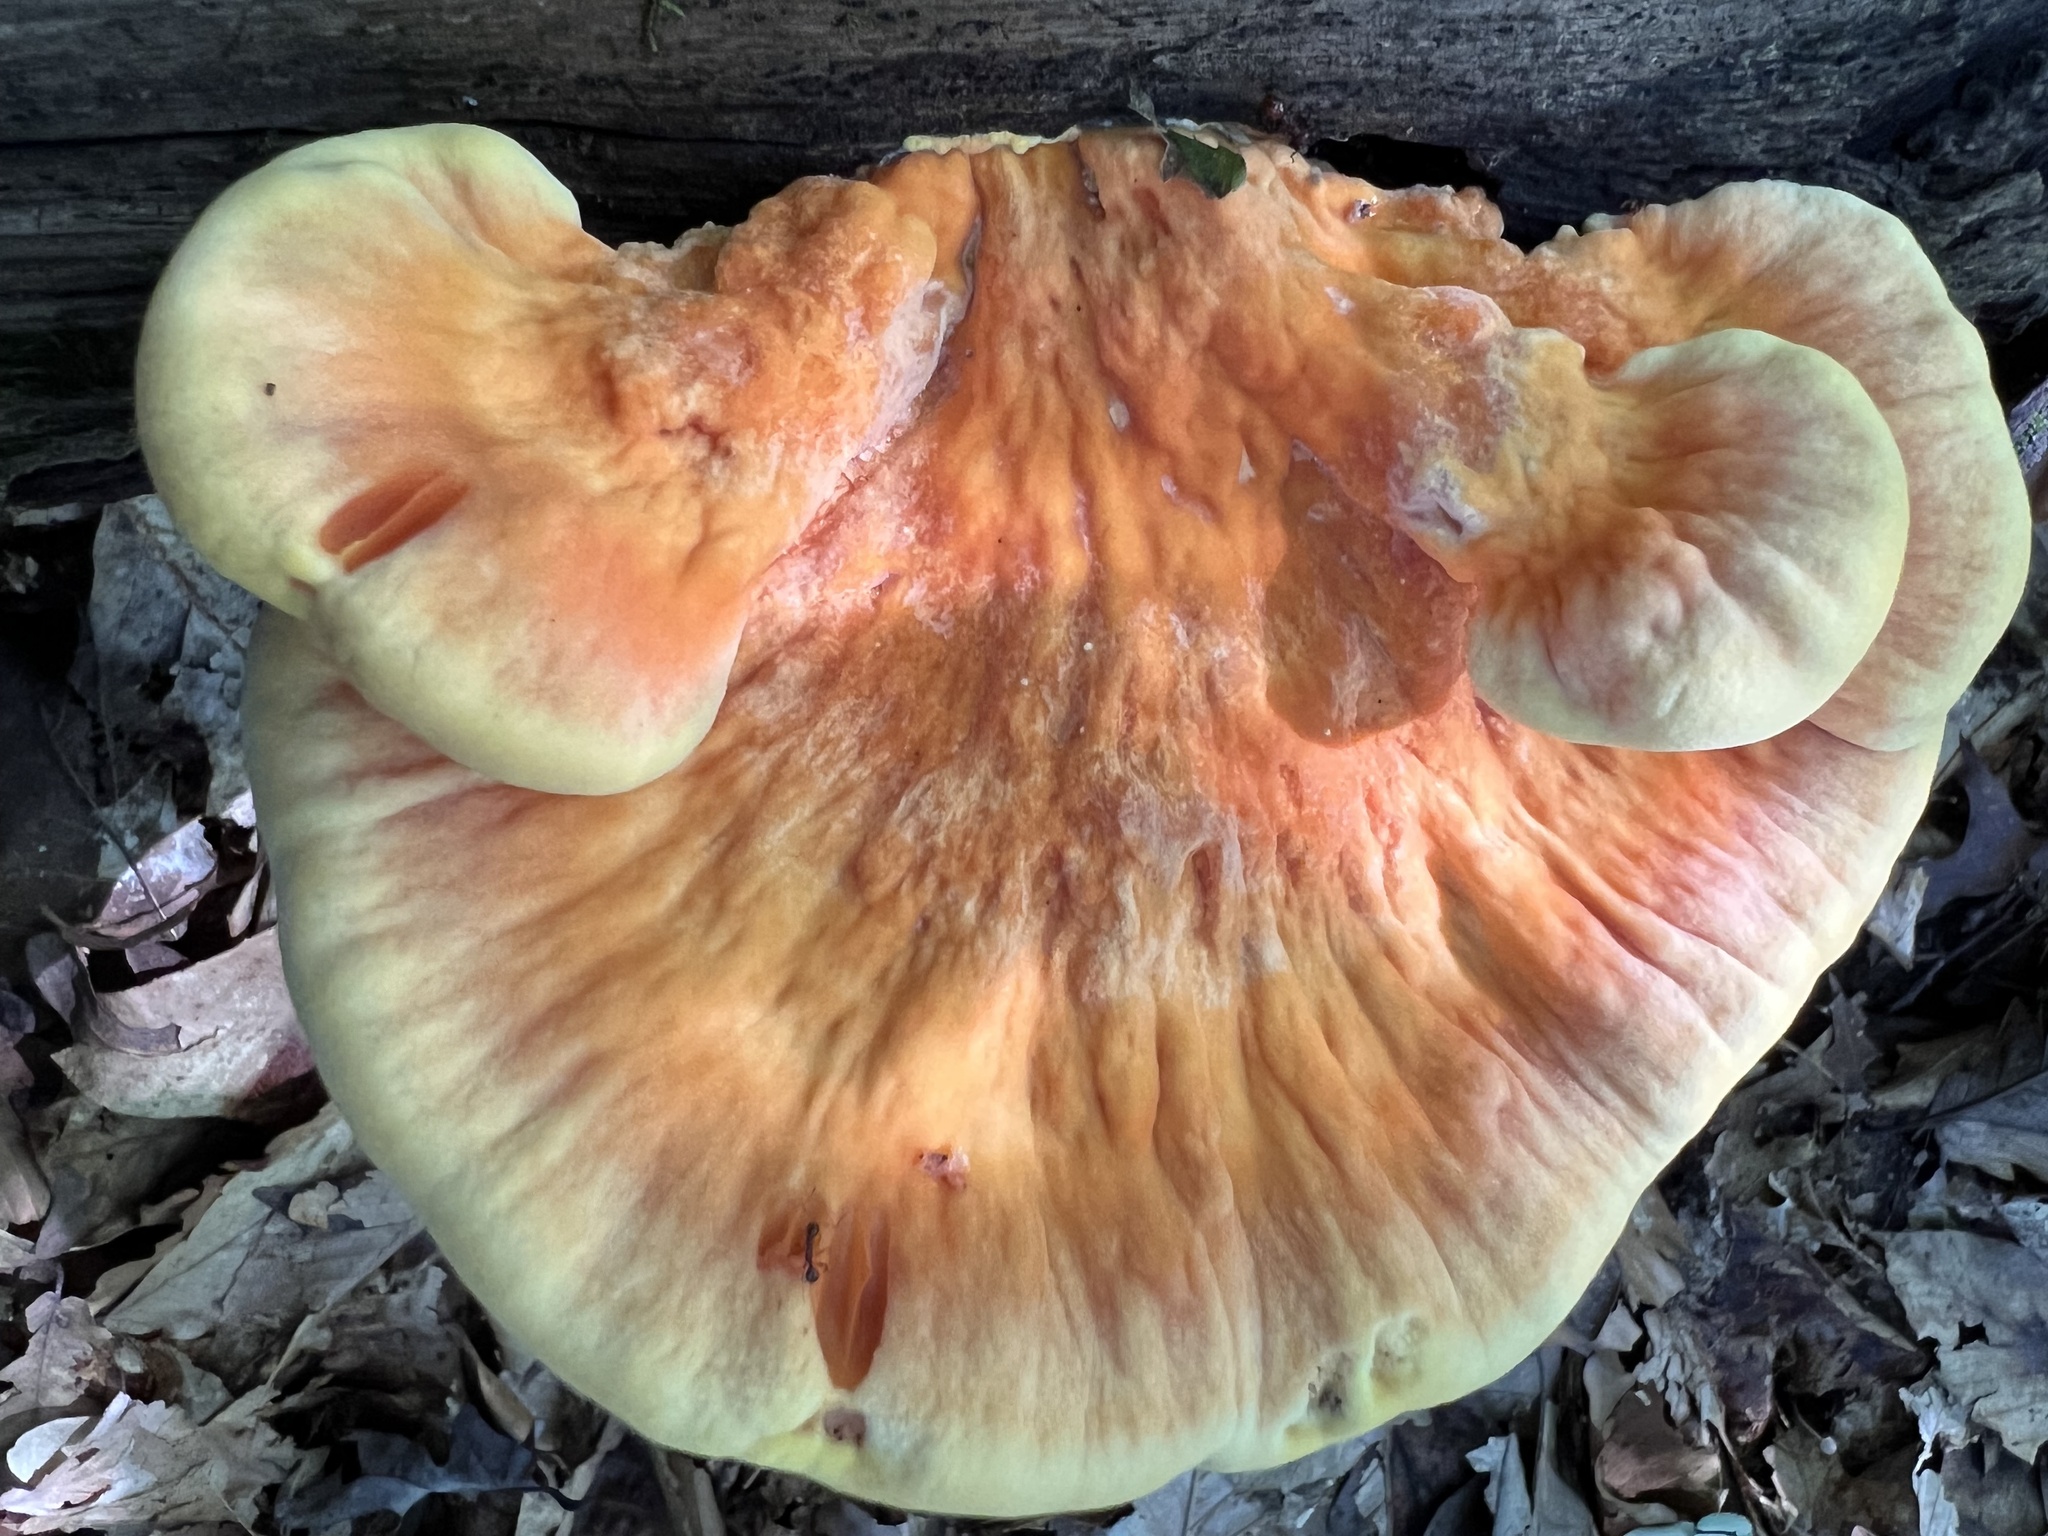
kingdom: Fungi
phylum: Basidiomycota
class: Agaricomycetes
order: Polyporales
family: Laetiporaceae
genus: Laetiporus
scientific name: Laetiporus sulphureus
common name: Chicken of the woods
